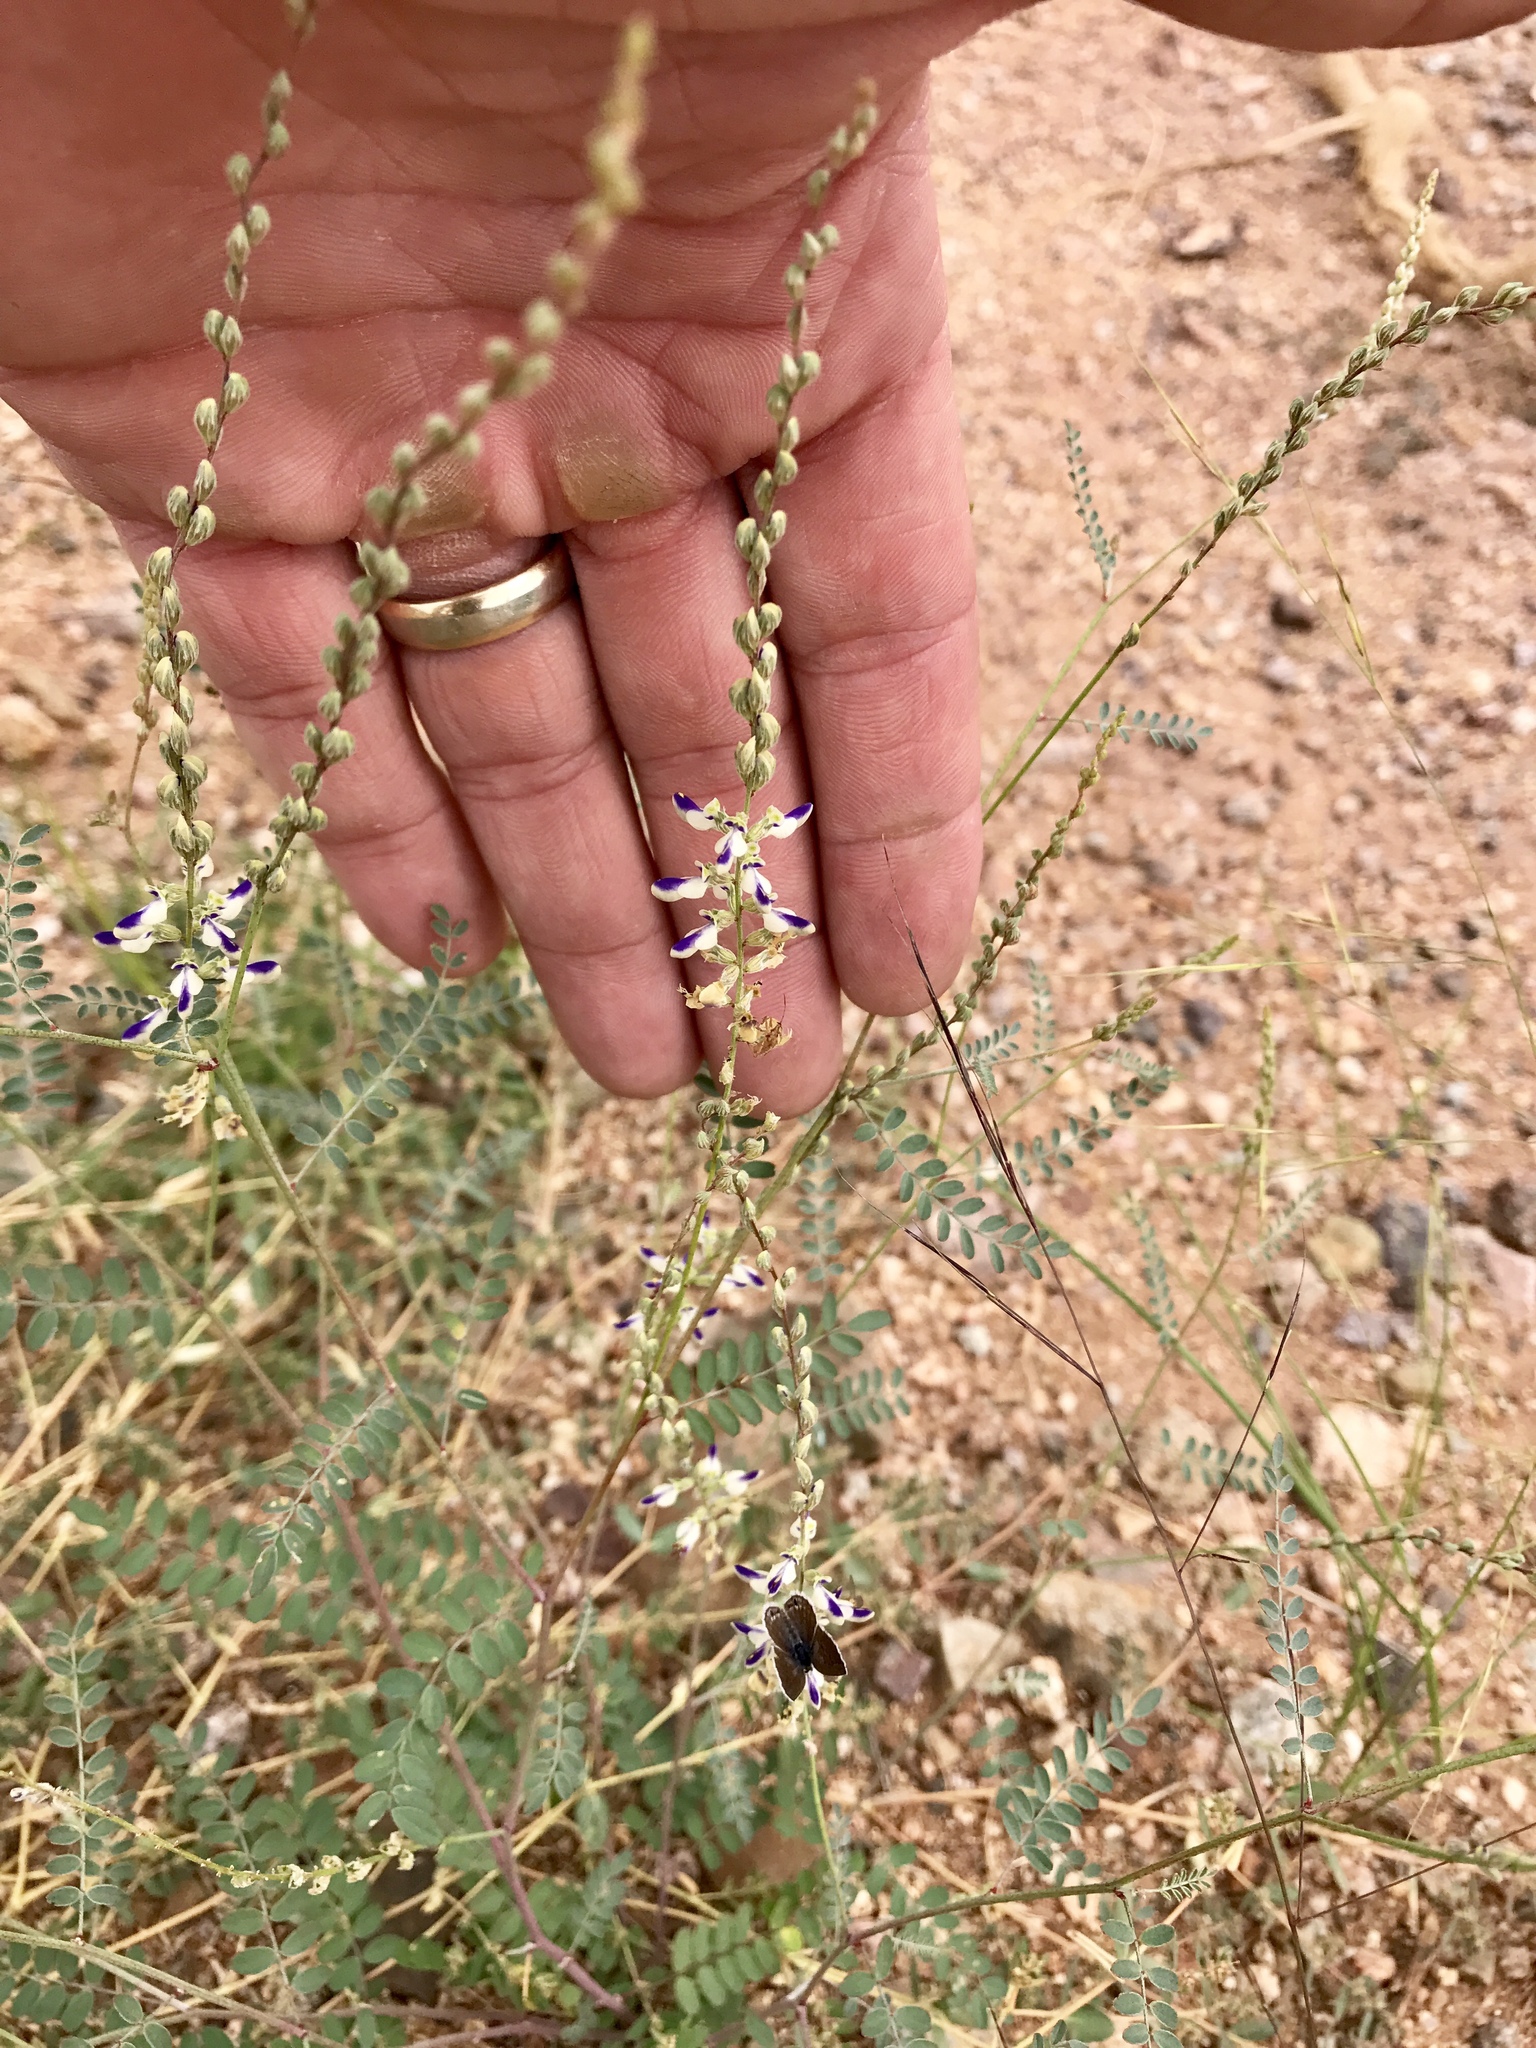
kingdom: Plantae
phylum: Tracheophyta
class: Magnoliopsida
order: Fabales
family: Fabaceae
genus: Marina
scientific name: Marina parryi
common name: Parry's marina
